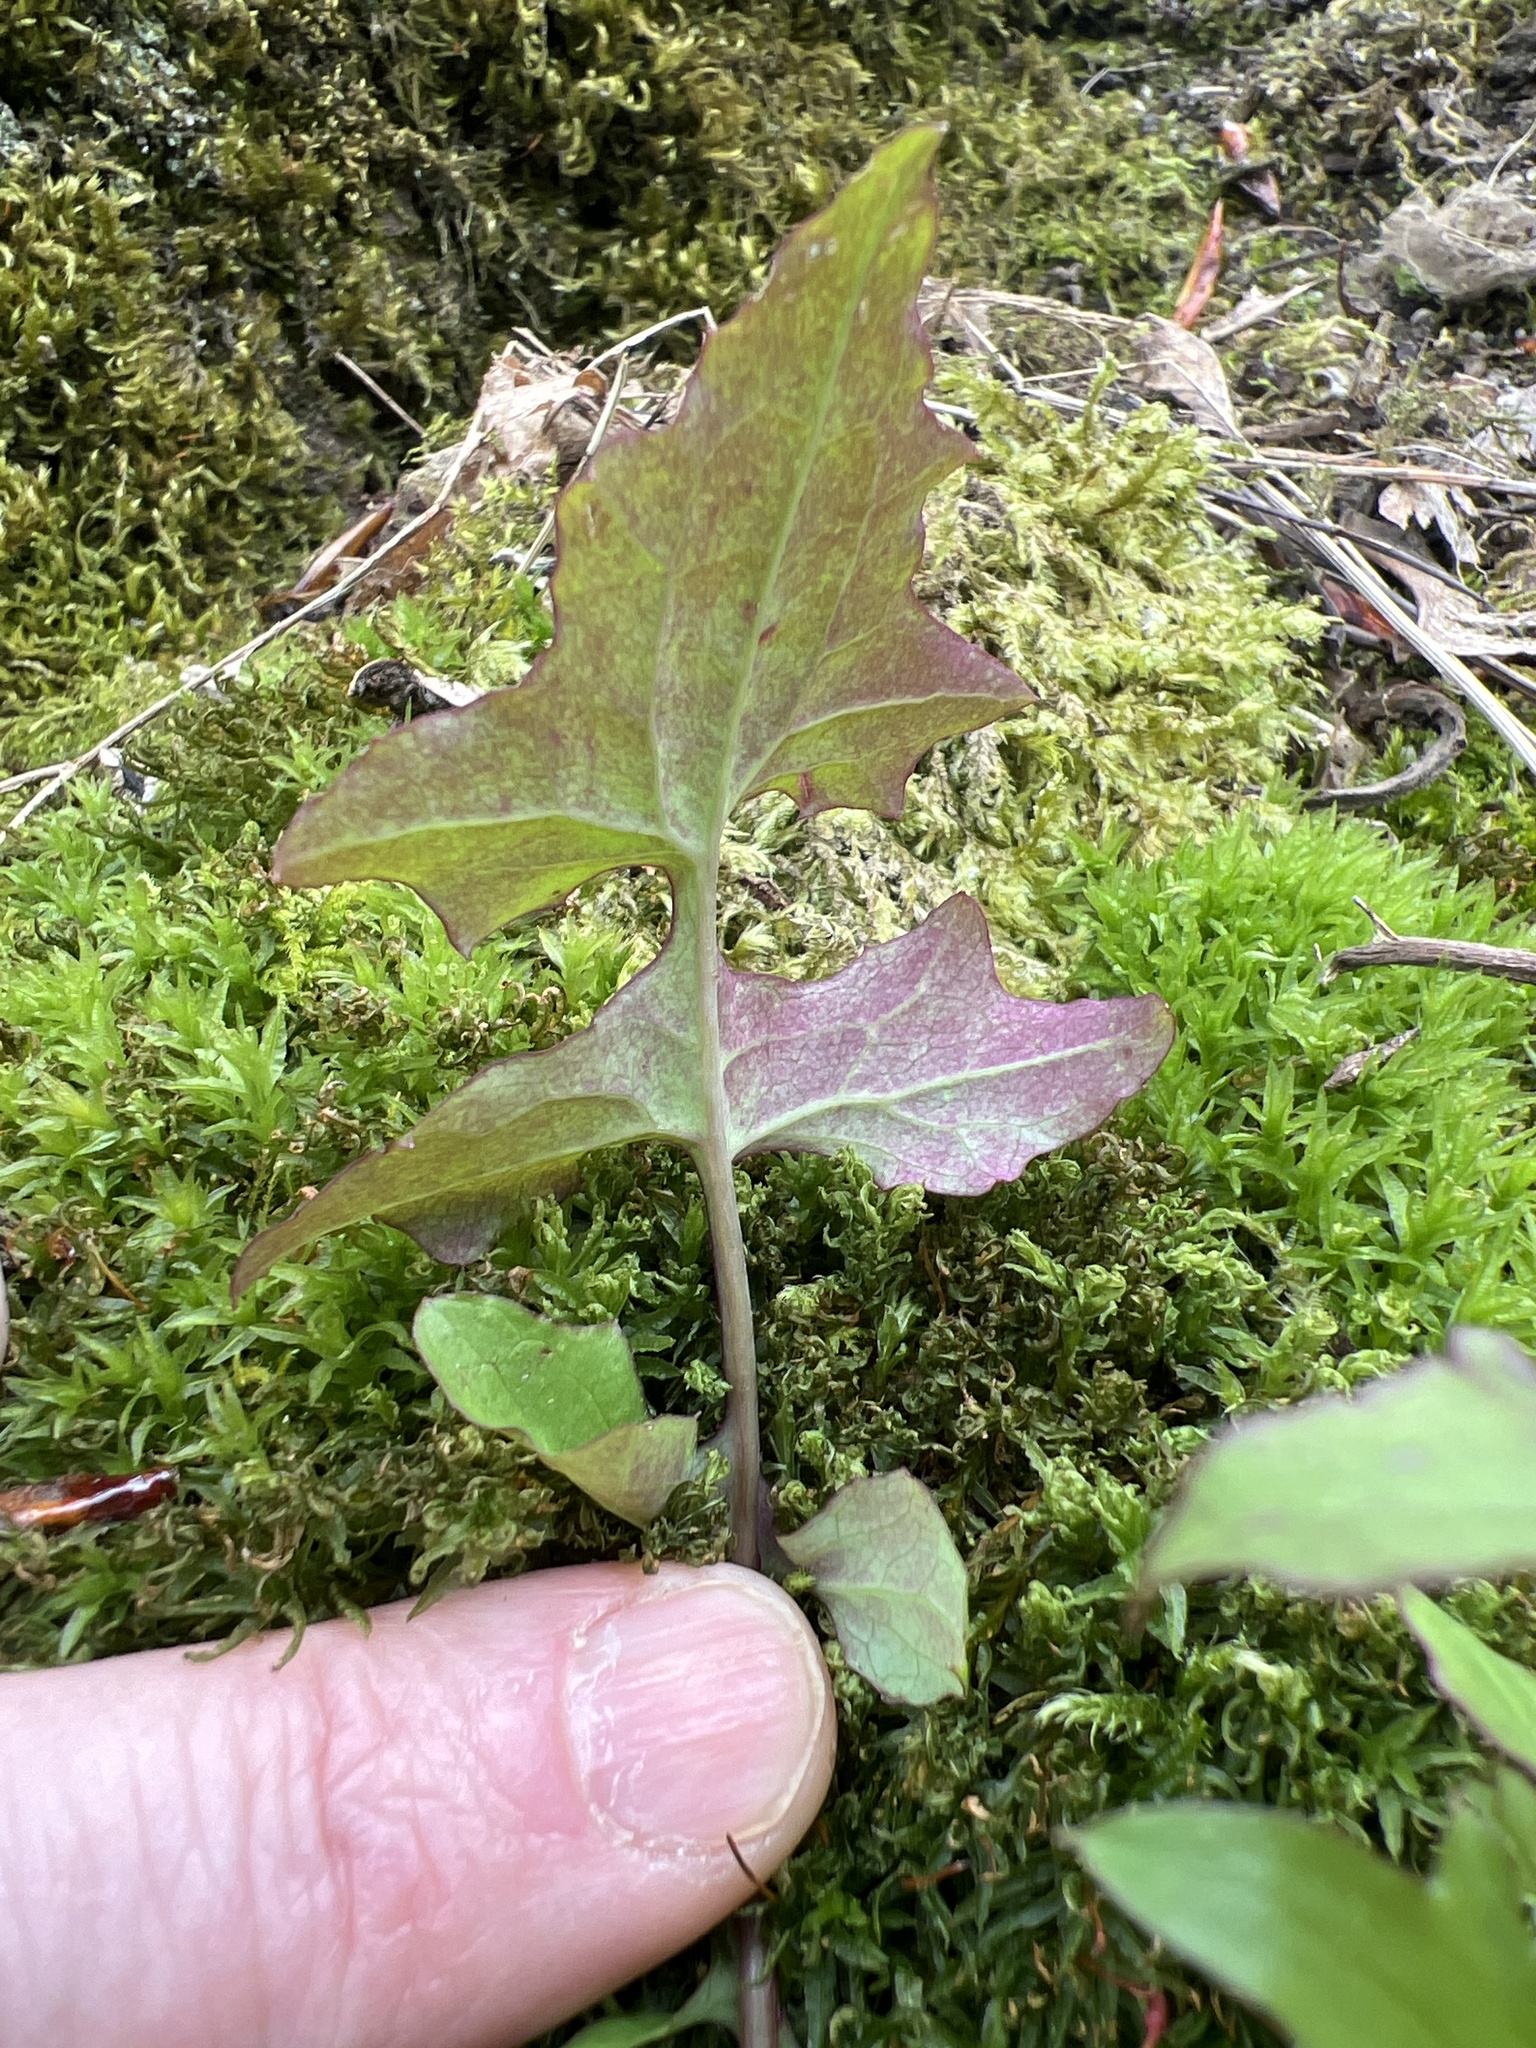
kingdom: Plantae
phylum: Tracheophyta
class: Magnoliopsida
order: Asterales
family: Asteraceae
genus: Mycelis
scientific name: Mycelis muralis
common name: Wall lettuce
